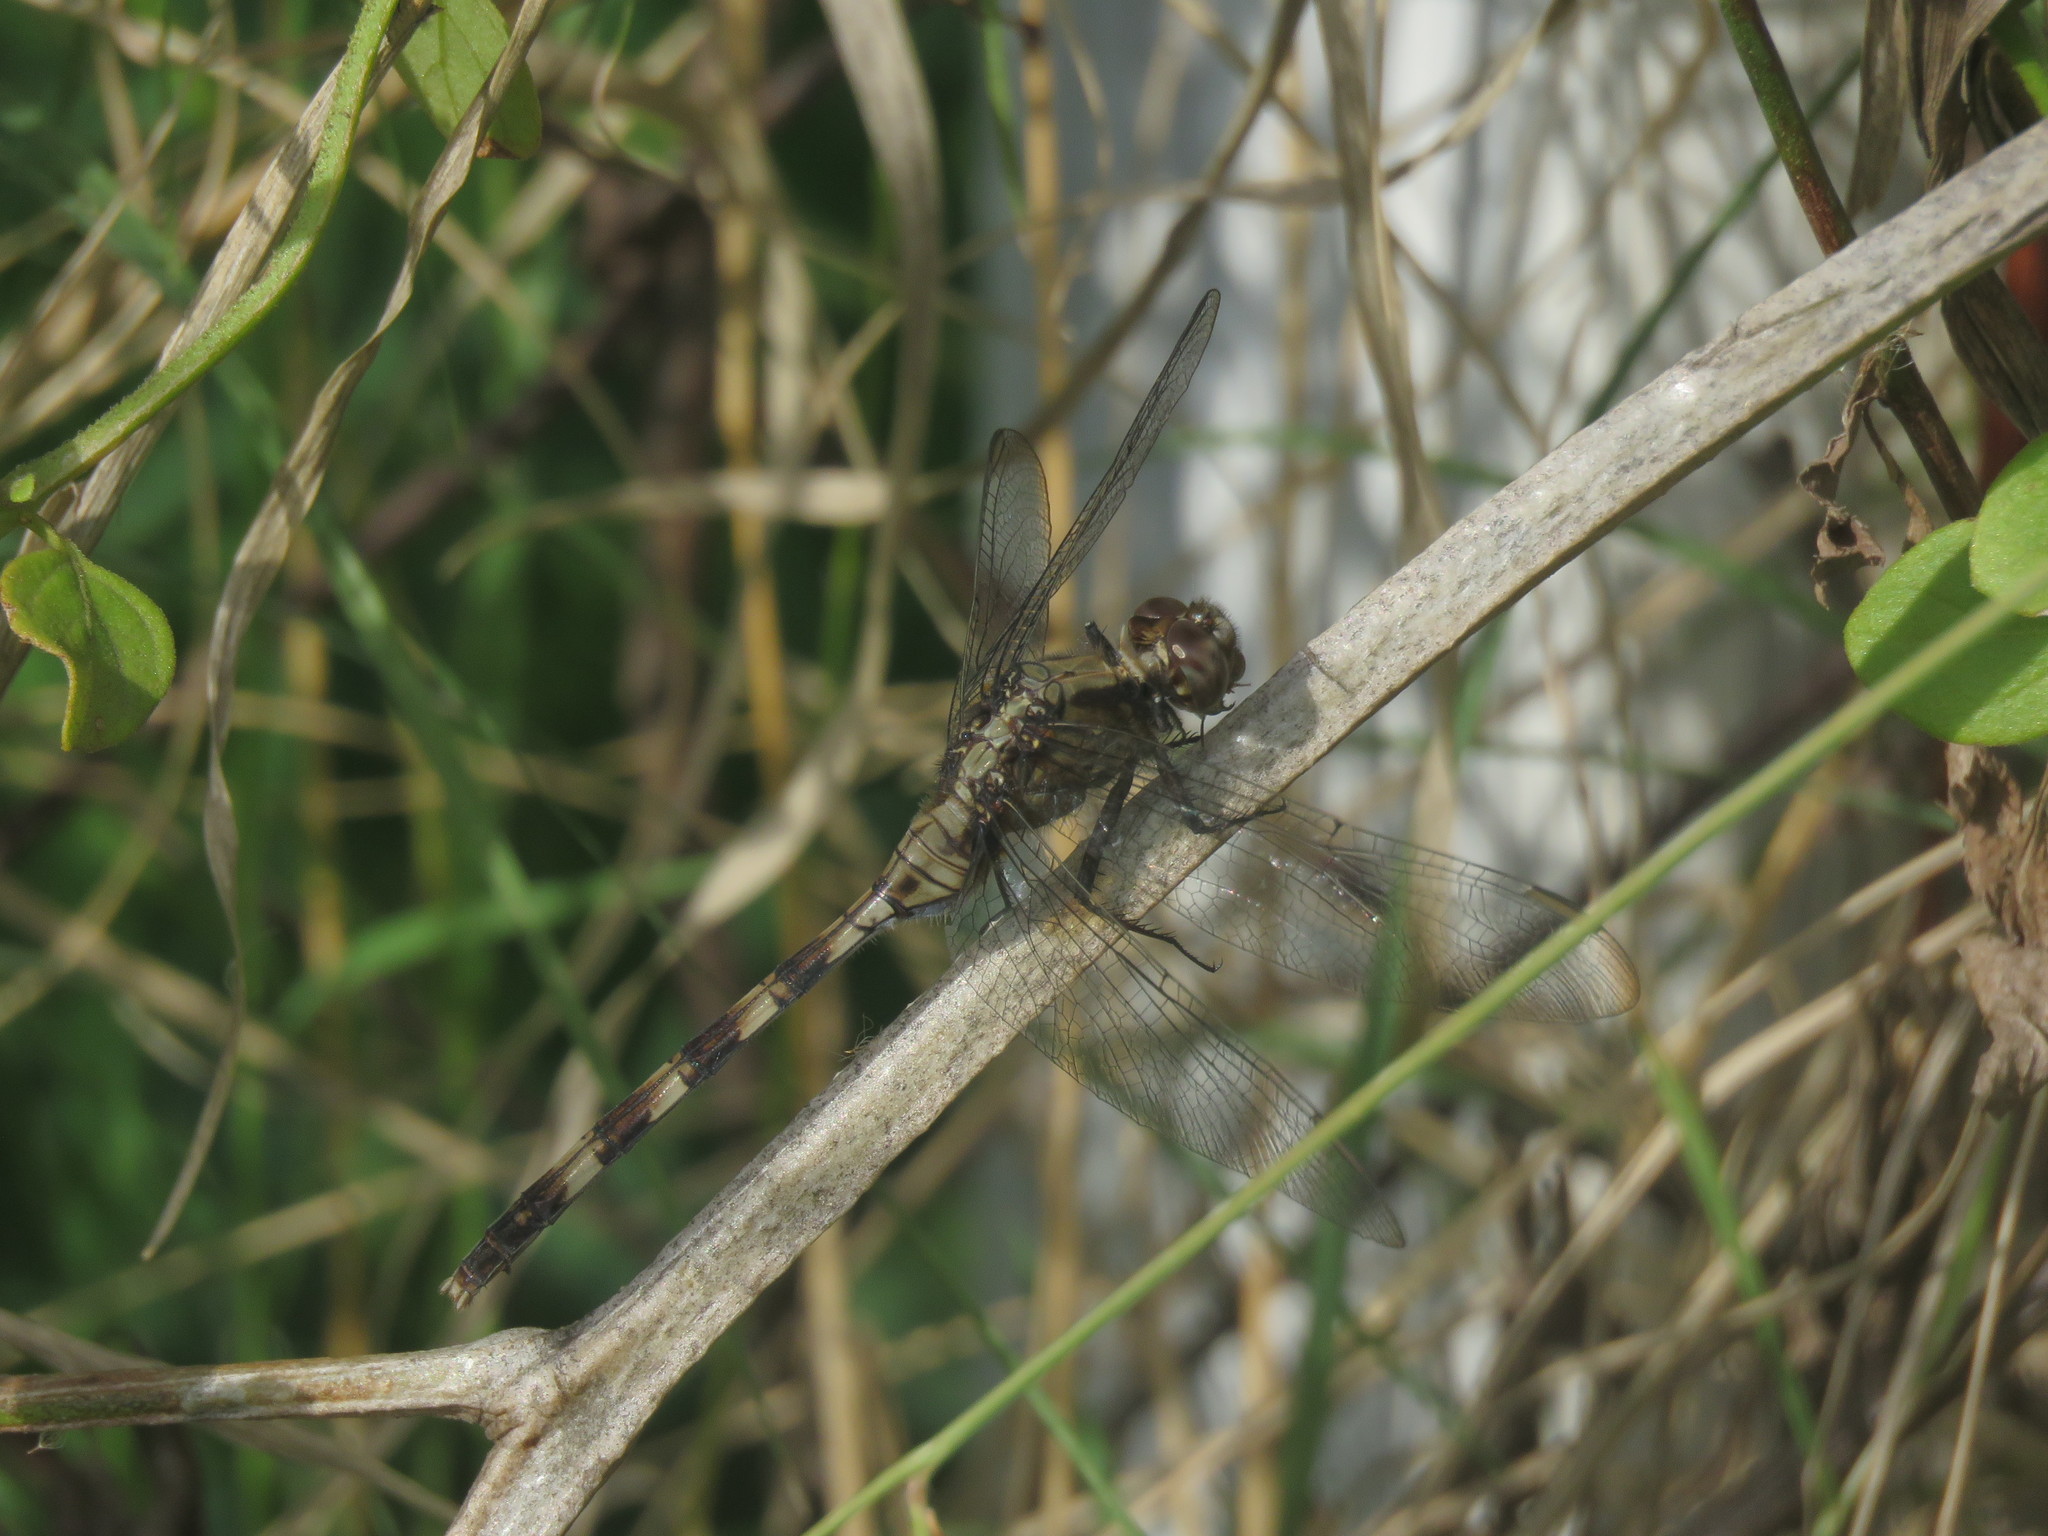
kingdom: Animalia
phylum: Arthropoda
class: Insecta
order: Odonata
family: Libellulidae
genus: Erythemis
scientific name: Erythemis plebeja
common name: Pin-tailed pondhawk
